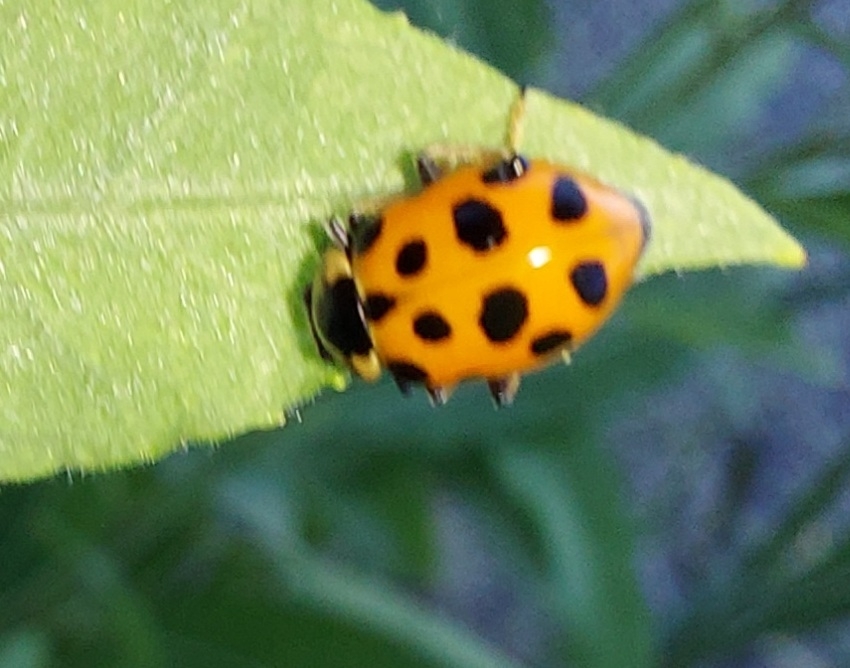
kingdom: Animalia
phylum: Arthropoda
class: Insecta
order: Coleoptera
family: Coccinellidae
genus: Hippodamia
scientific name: Hippodamia tredecimpunctata
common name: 13-spot ladybird
